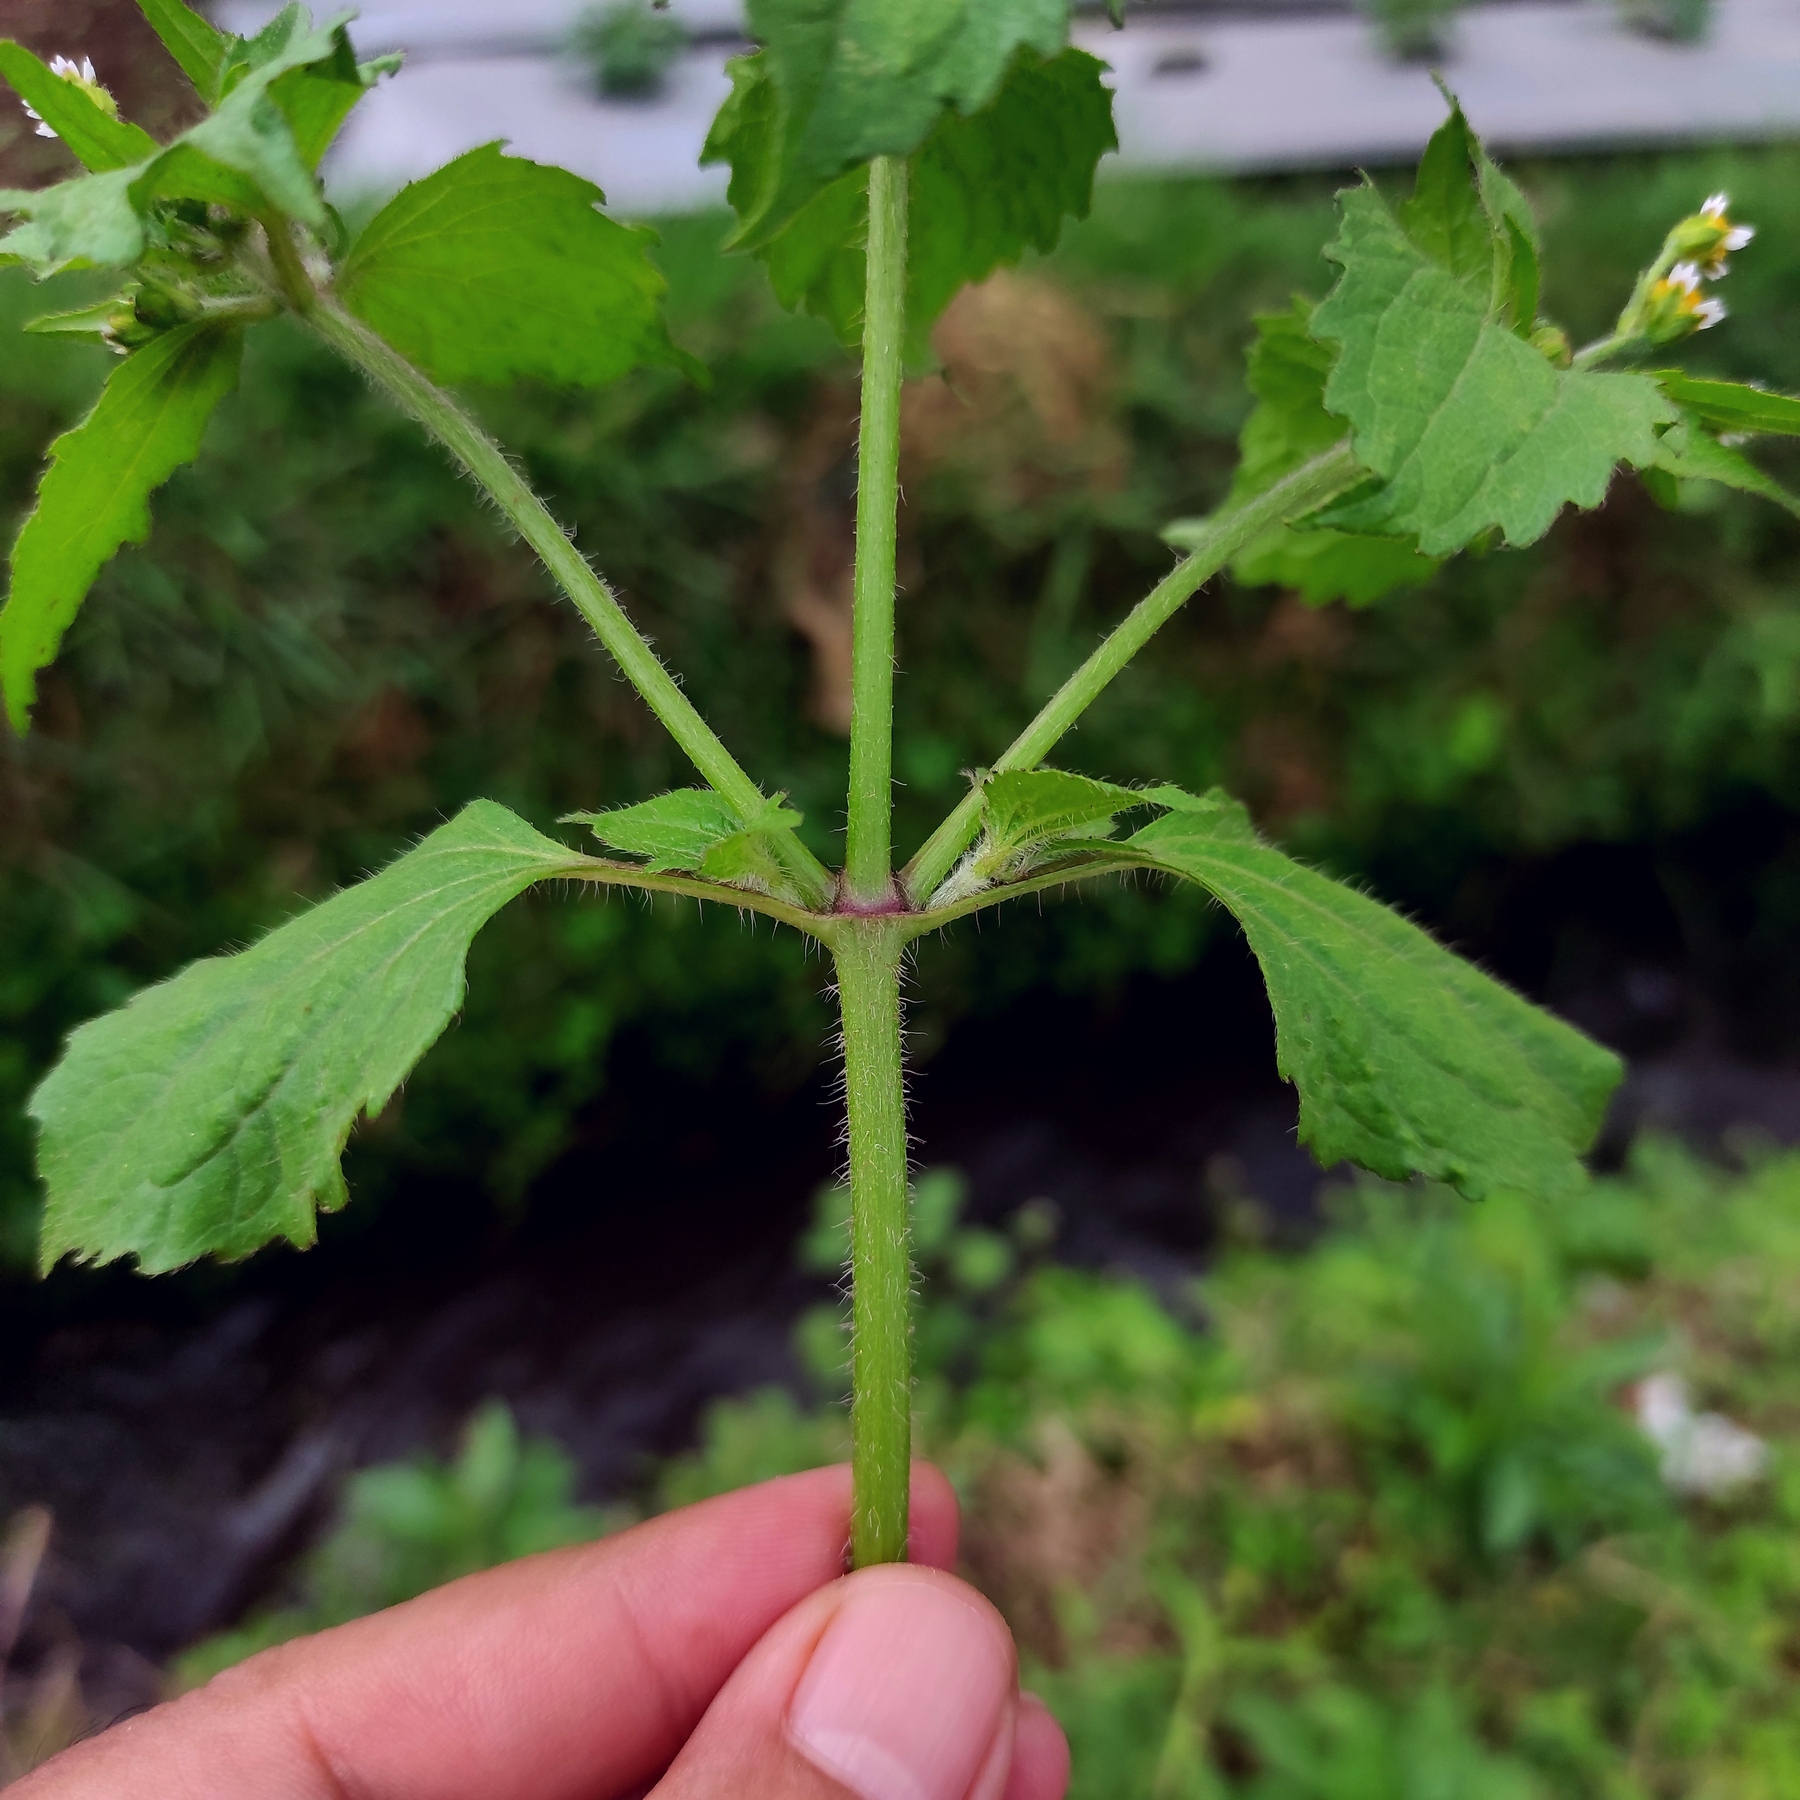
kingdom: Plantae
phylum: Tracheophyta
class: Magnoliopsida
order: Asterales
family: Asteraceae
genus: Galinsoga
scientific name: Galinsoga quadriradiata
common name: Shaggy soldier
